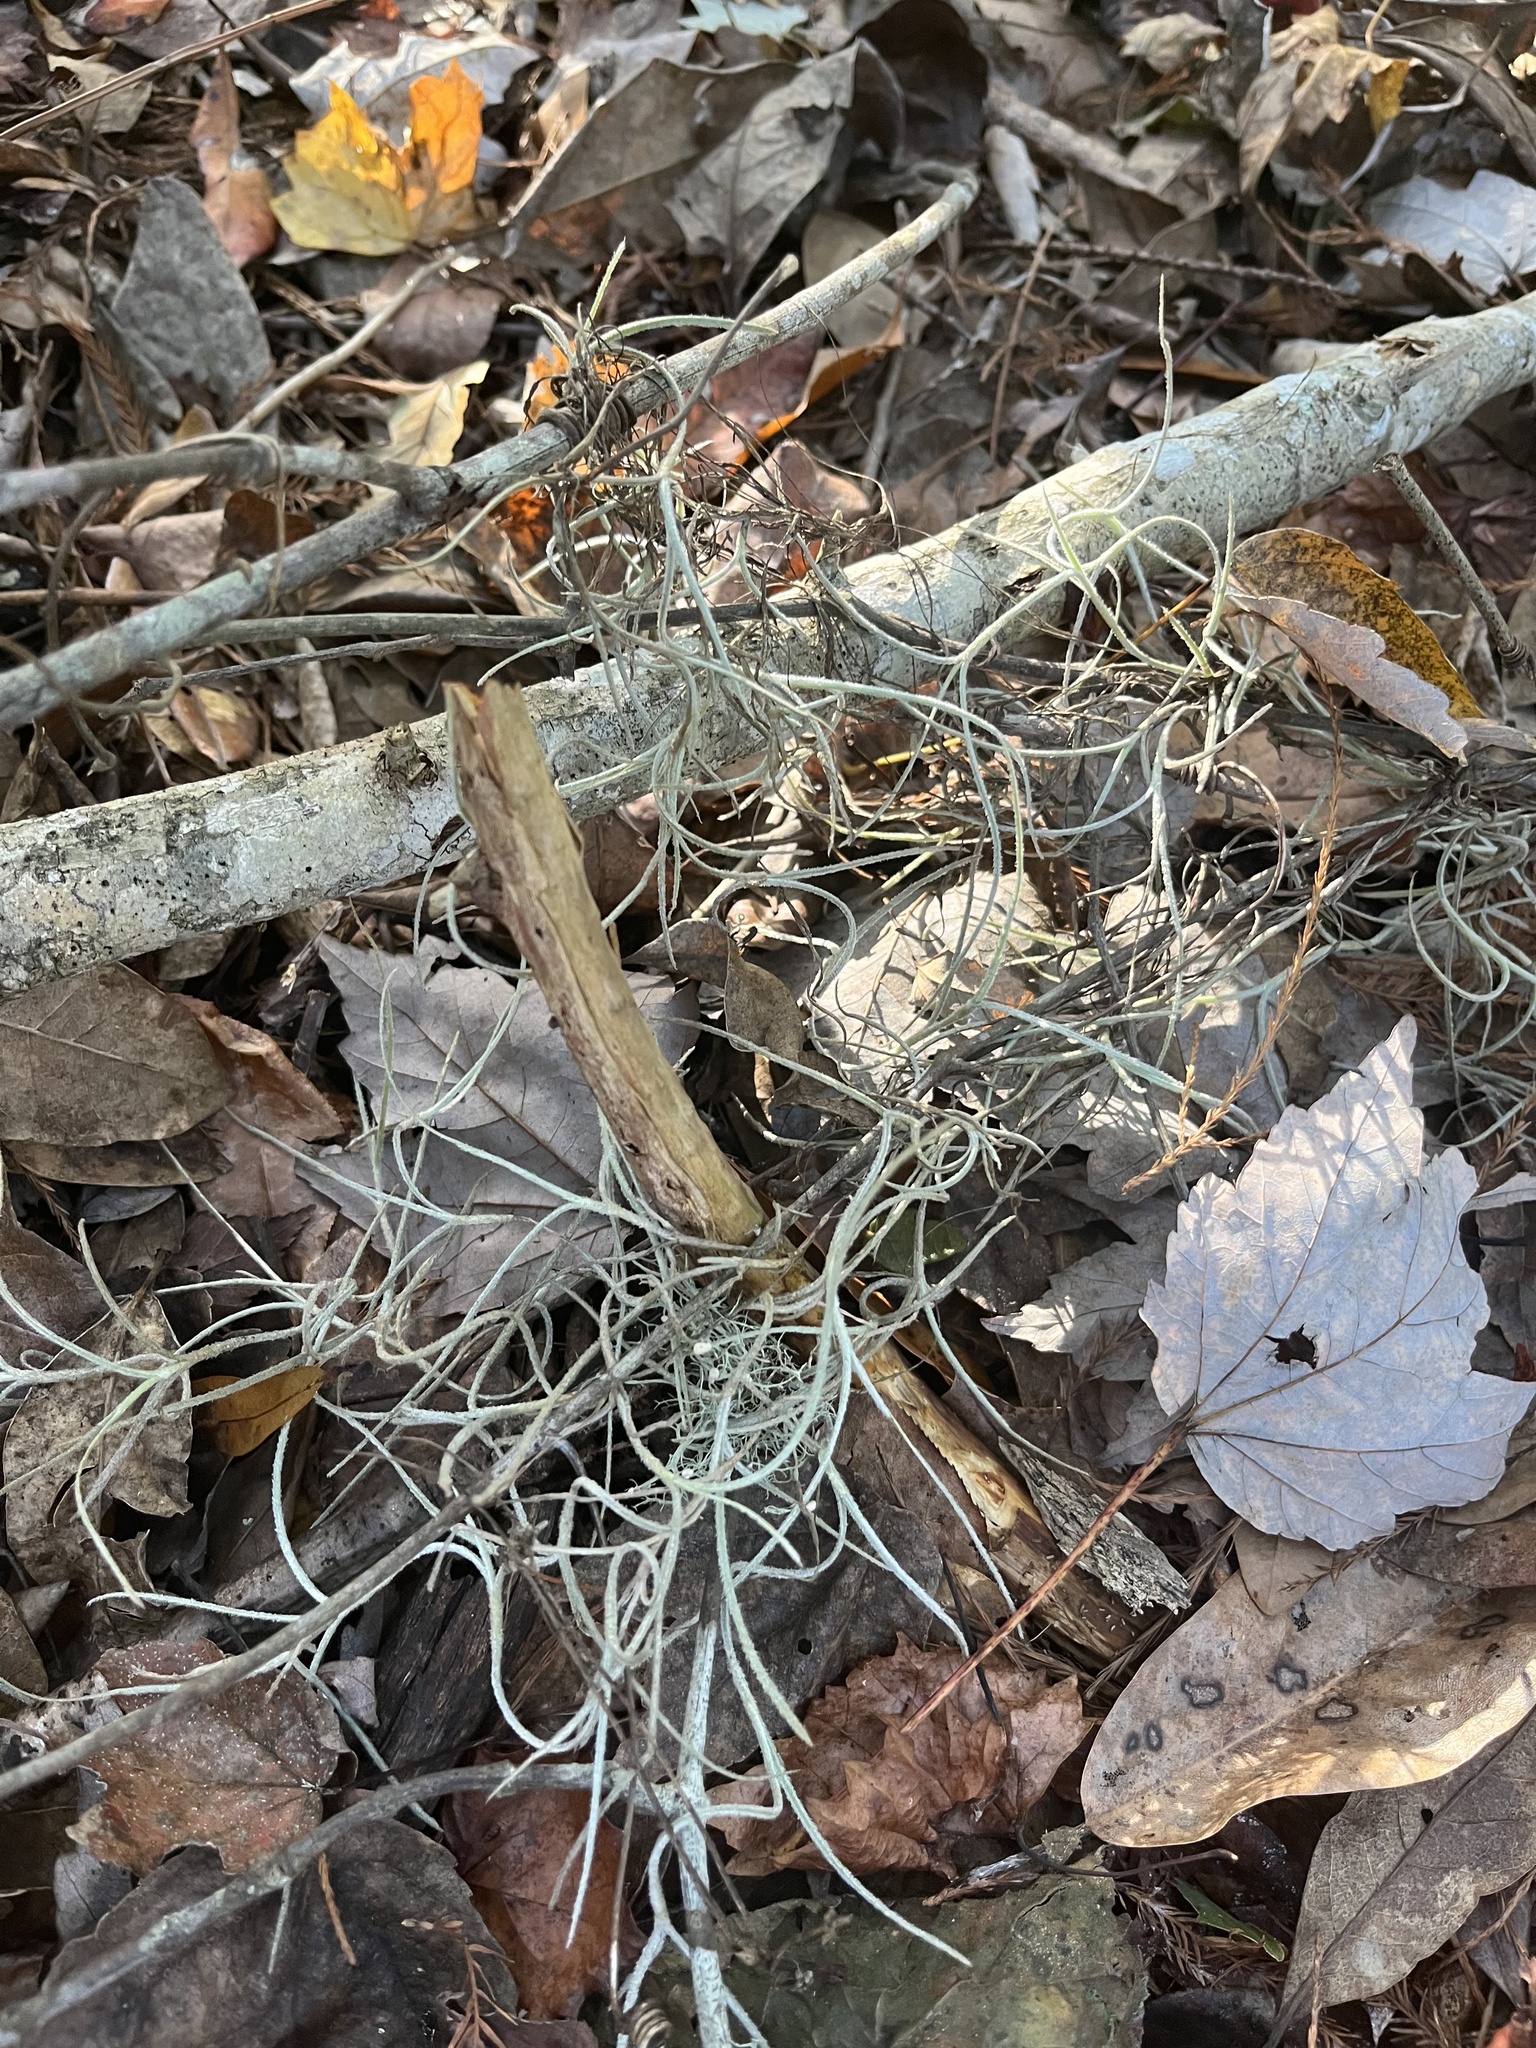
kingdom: Plantae
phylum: Tracheophyta
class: Liliopsida
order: Poales
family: Bromeliaceae
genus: Tillandsia
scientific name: Tillandsia usneoides
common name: Spanish moss
